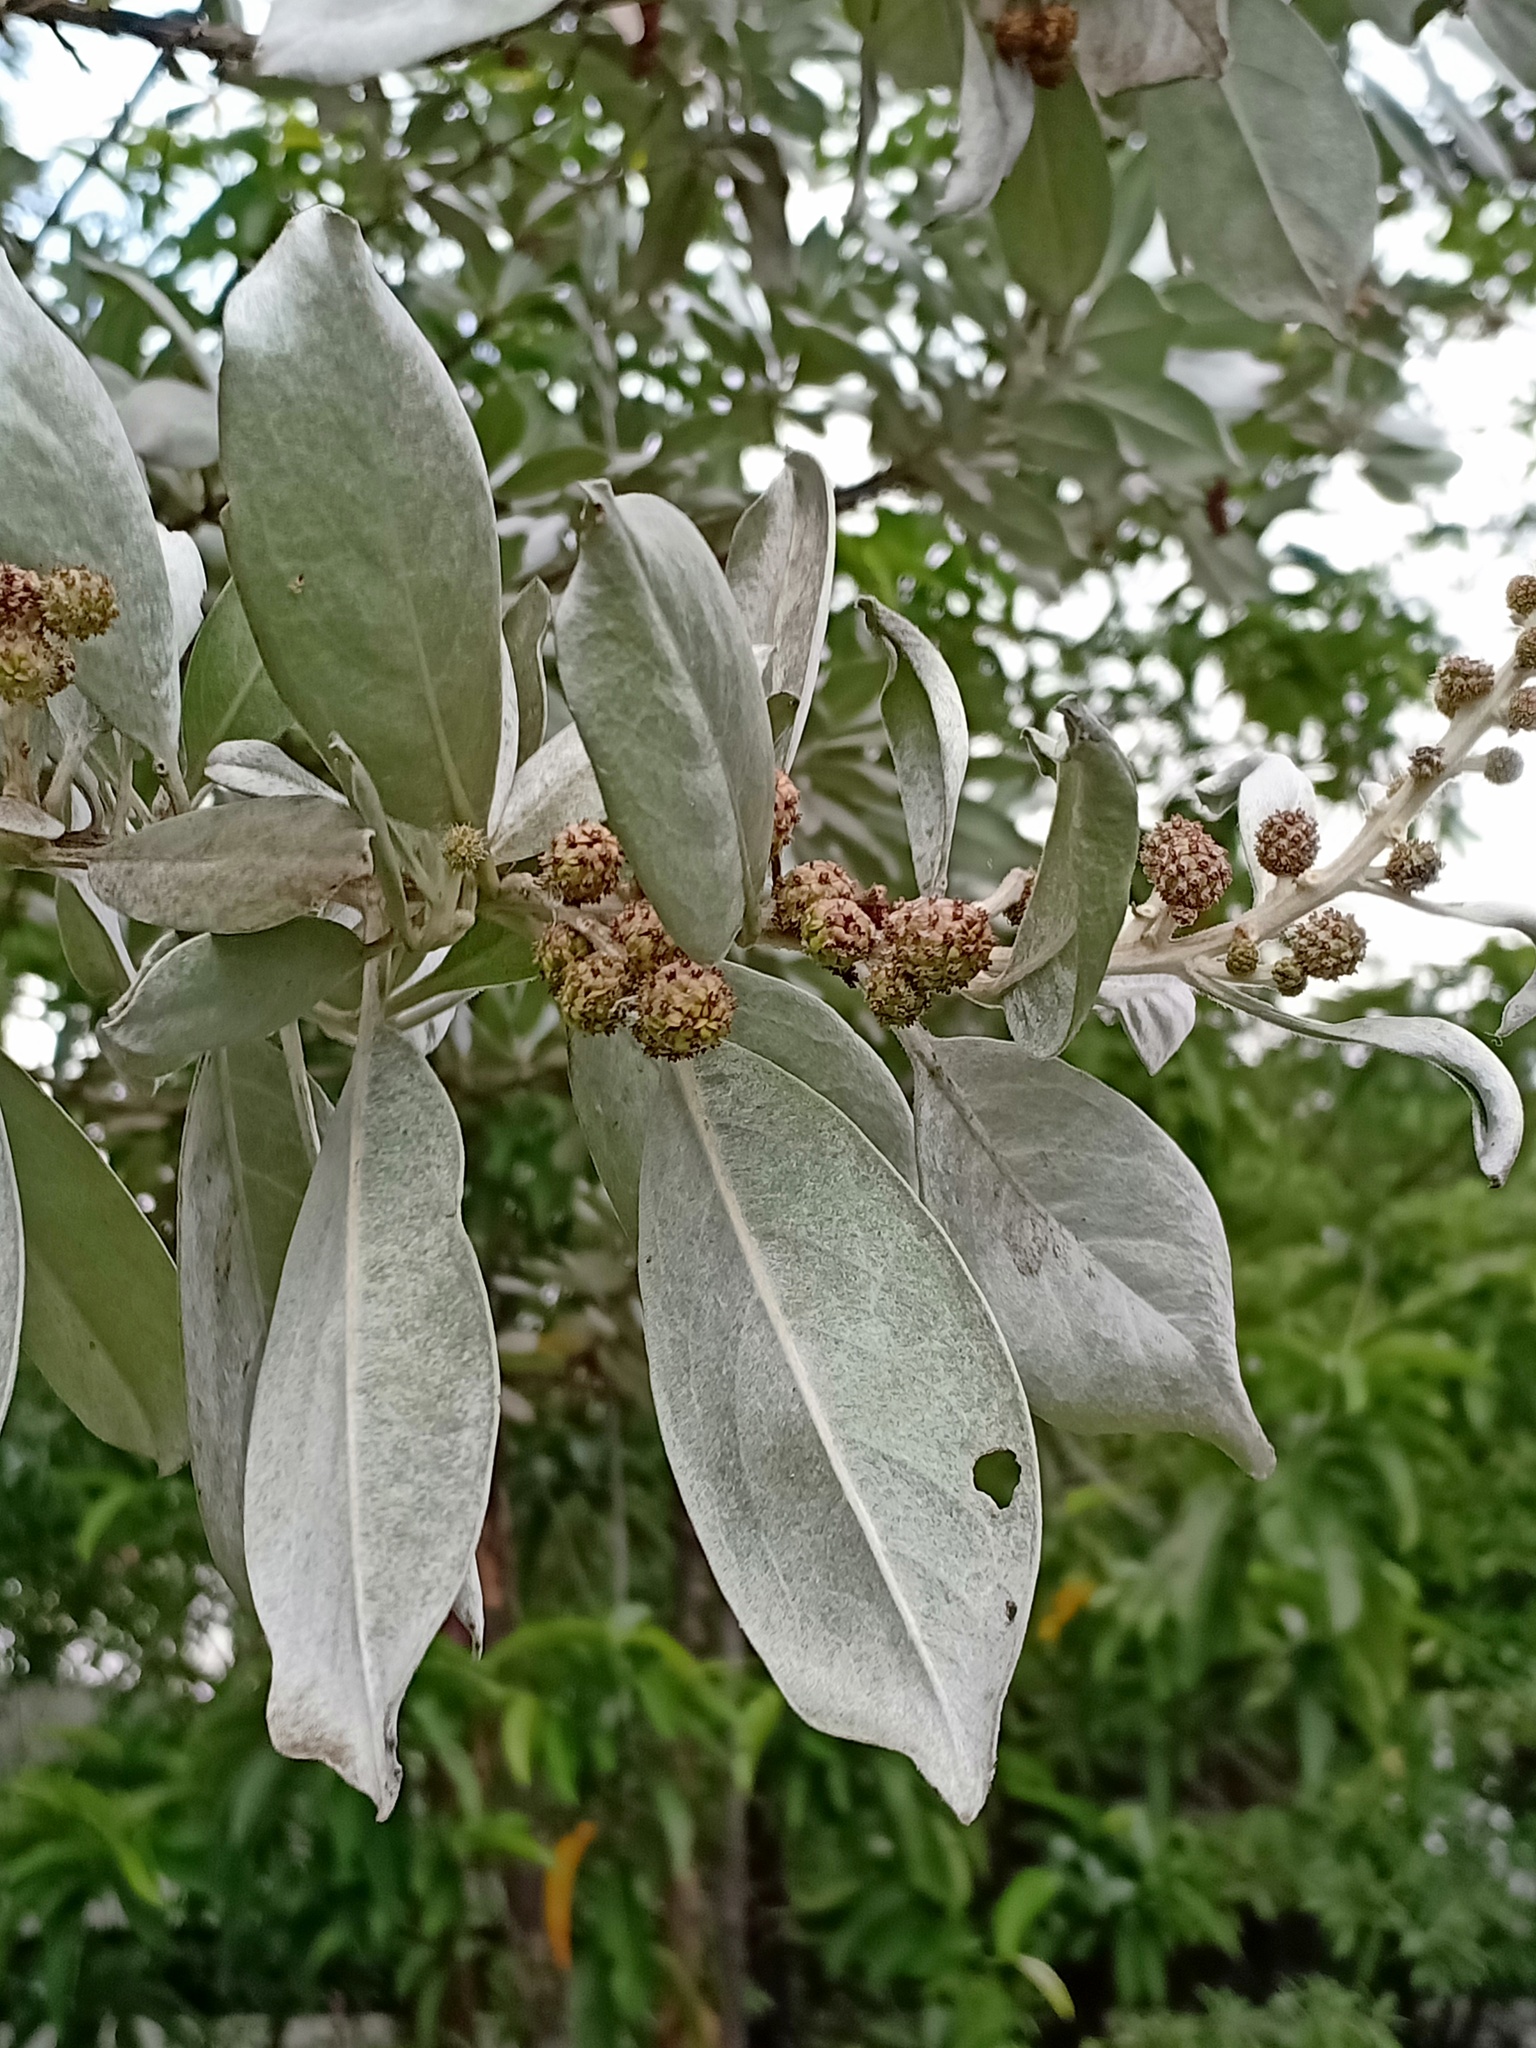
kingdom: Plantae
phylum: Tracheophyta
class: Magnoliopsida
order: Myrtales
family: Combretaceae
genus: Conocarpus
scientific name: Conocarpus erectus
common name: Button mangrove
